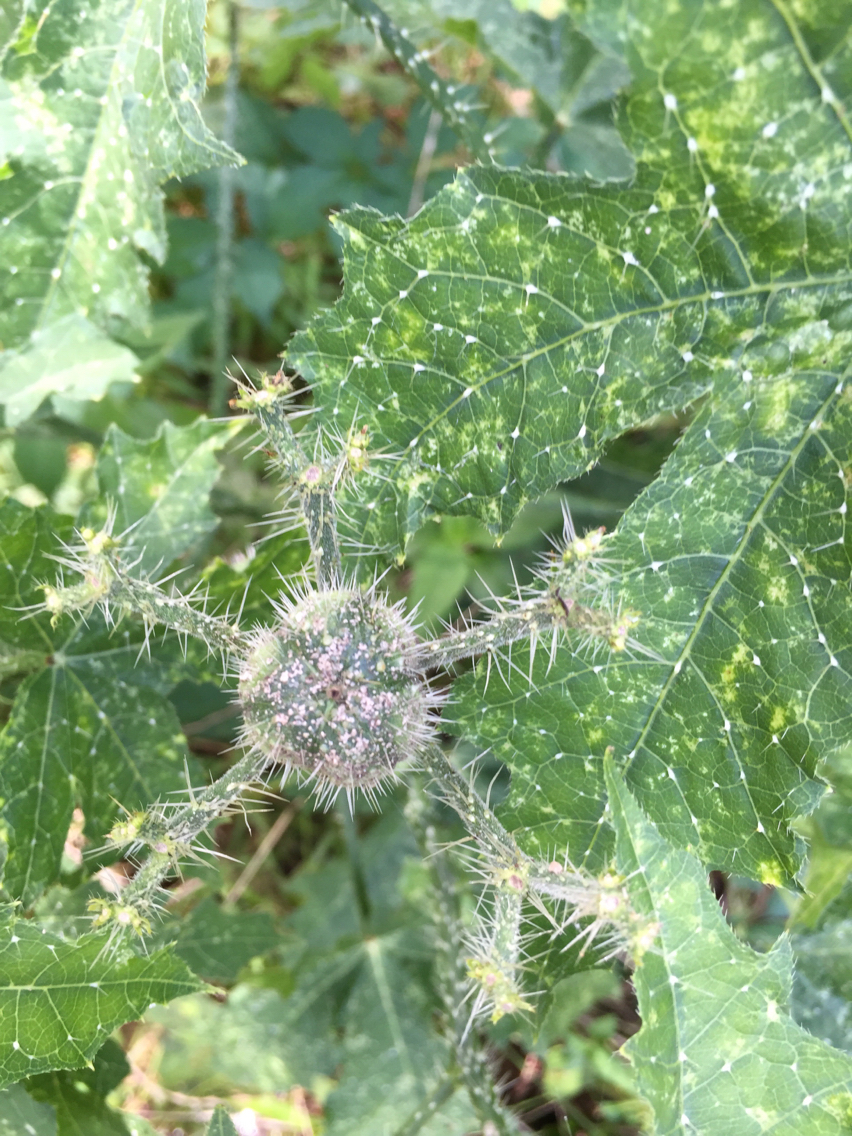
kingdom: Plantae
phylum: Tracheophyta
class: Magnoliopsida
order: Malpighiales
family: Euphorbiaceae
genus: Cnidoscolus
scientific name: Cnidoscolus texanus
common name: Texas bull-nettle
